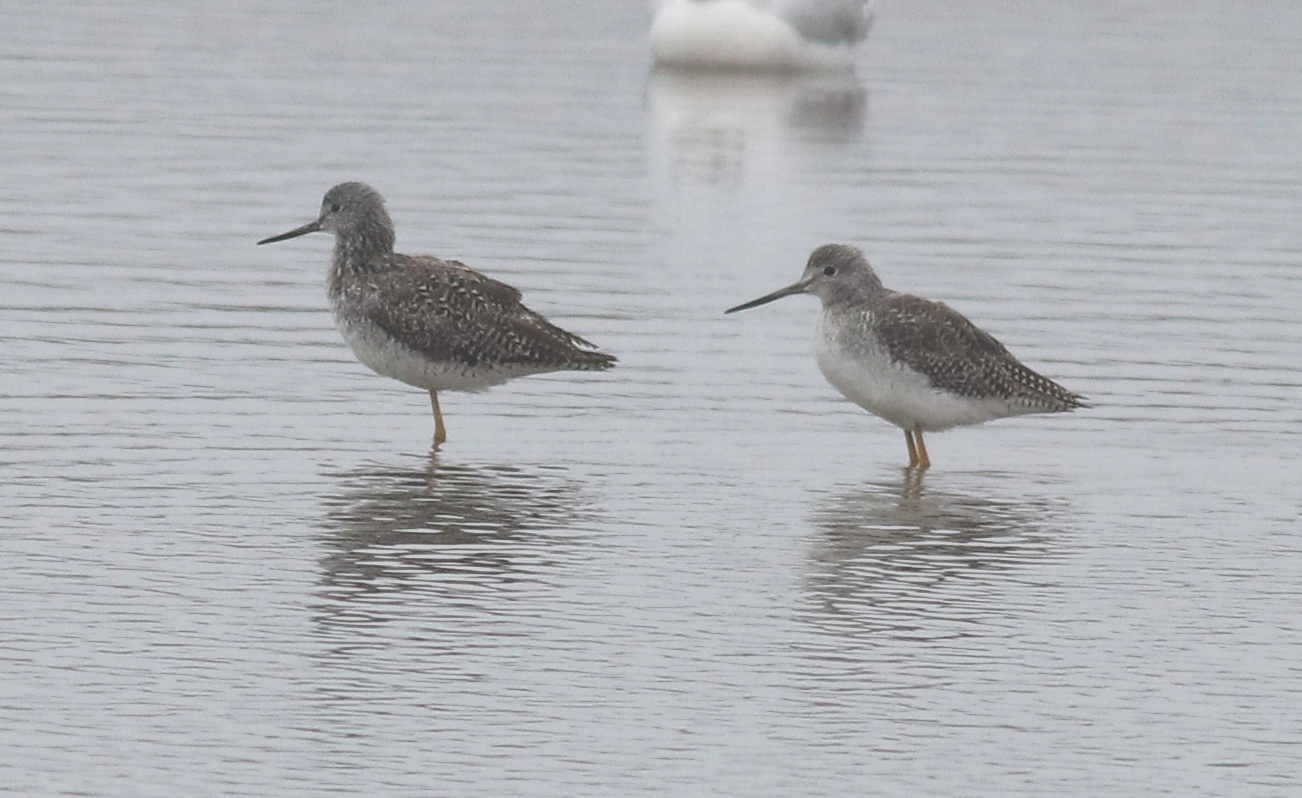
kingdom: Animalia
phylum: Chordata
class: Aves
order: Charadriiformes
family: Scolopacidae
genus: Tringa
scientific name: Tringa melanoleuca
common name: Greater yellowlegs
